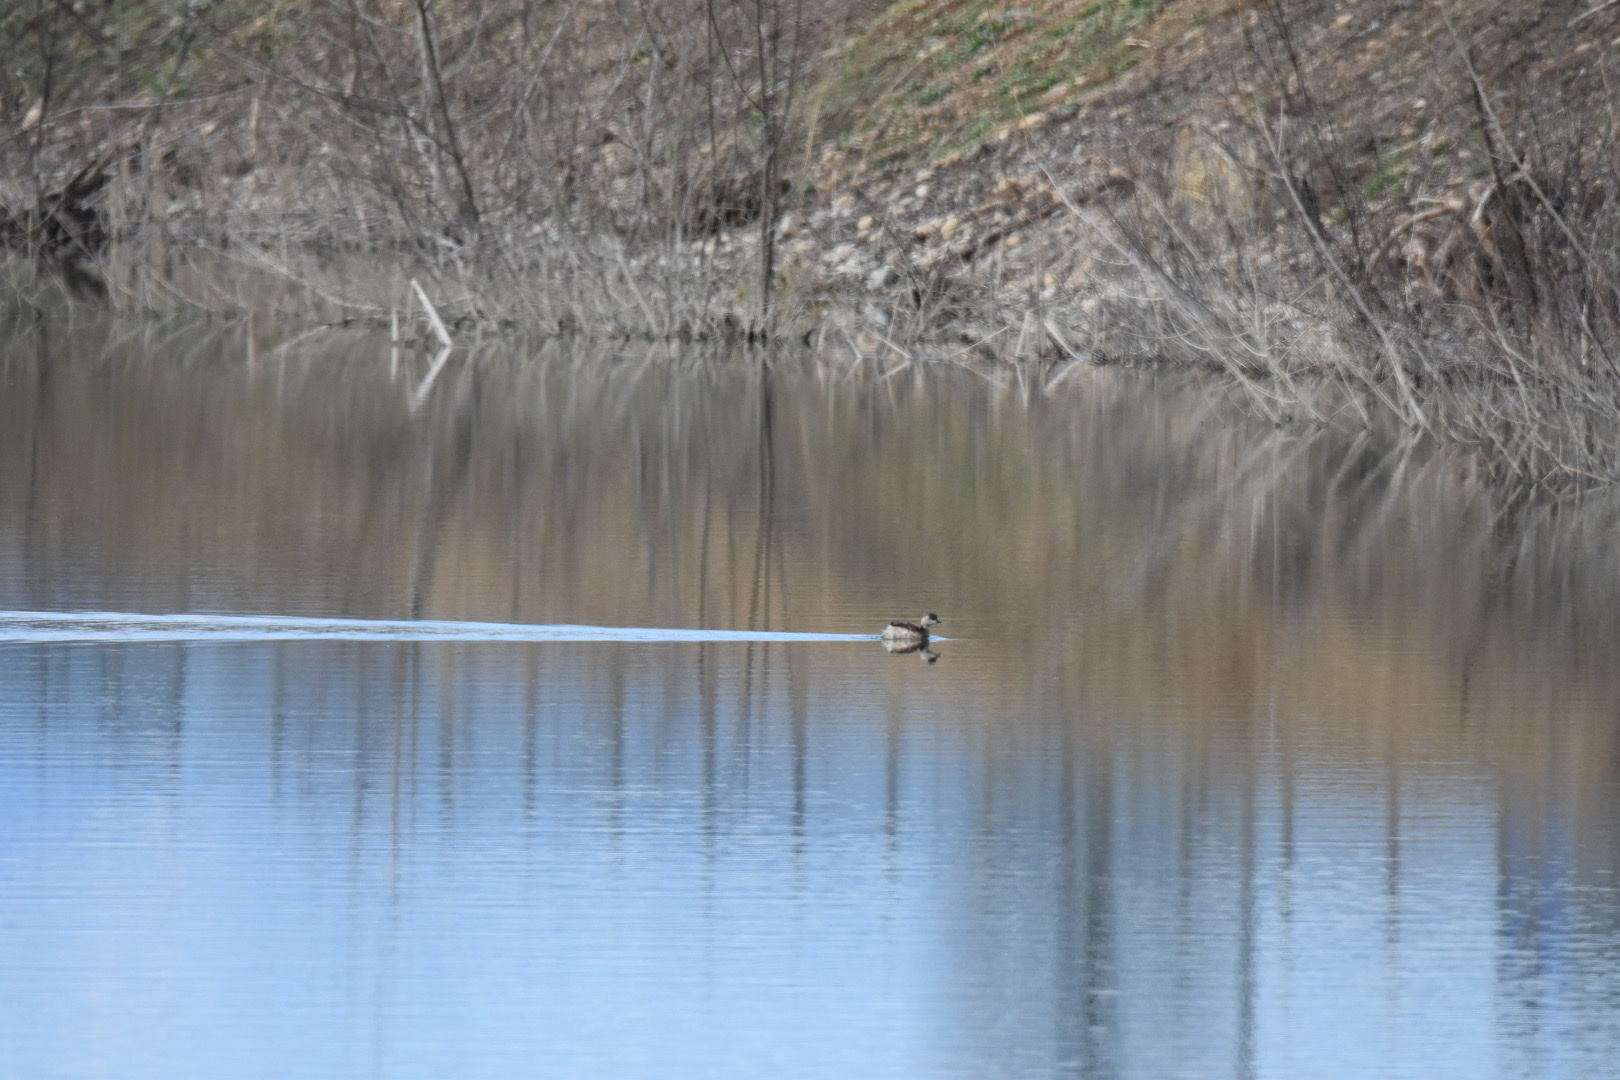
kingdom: Animalia
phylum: Chordata
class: Aves
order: Podicipediformes
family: Podicipedidae
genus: Tachybaptus
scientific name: Tachybaptus ruficollis
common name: Little grebe
